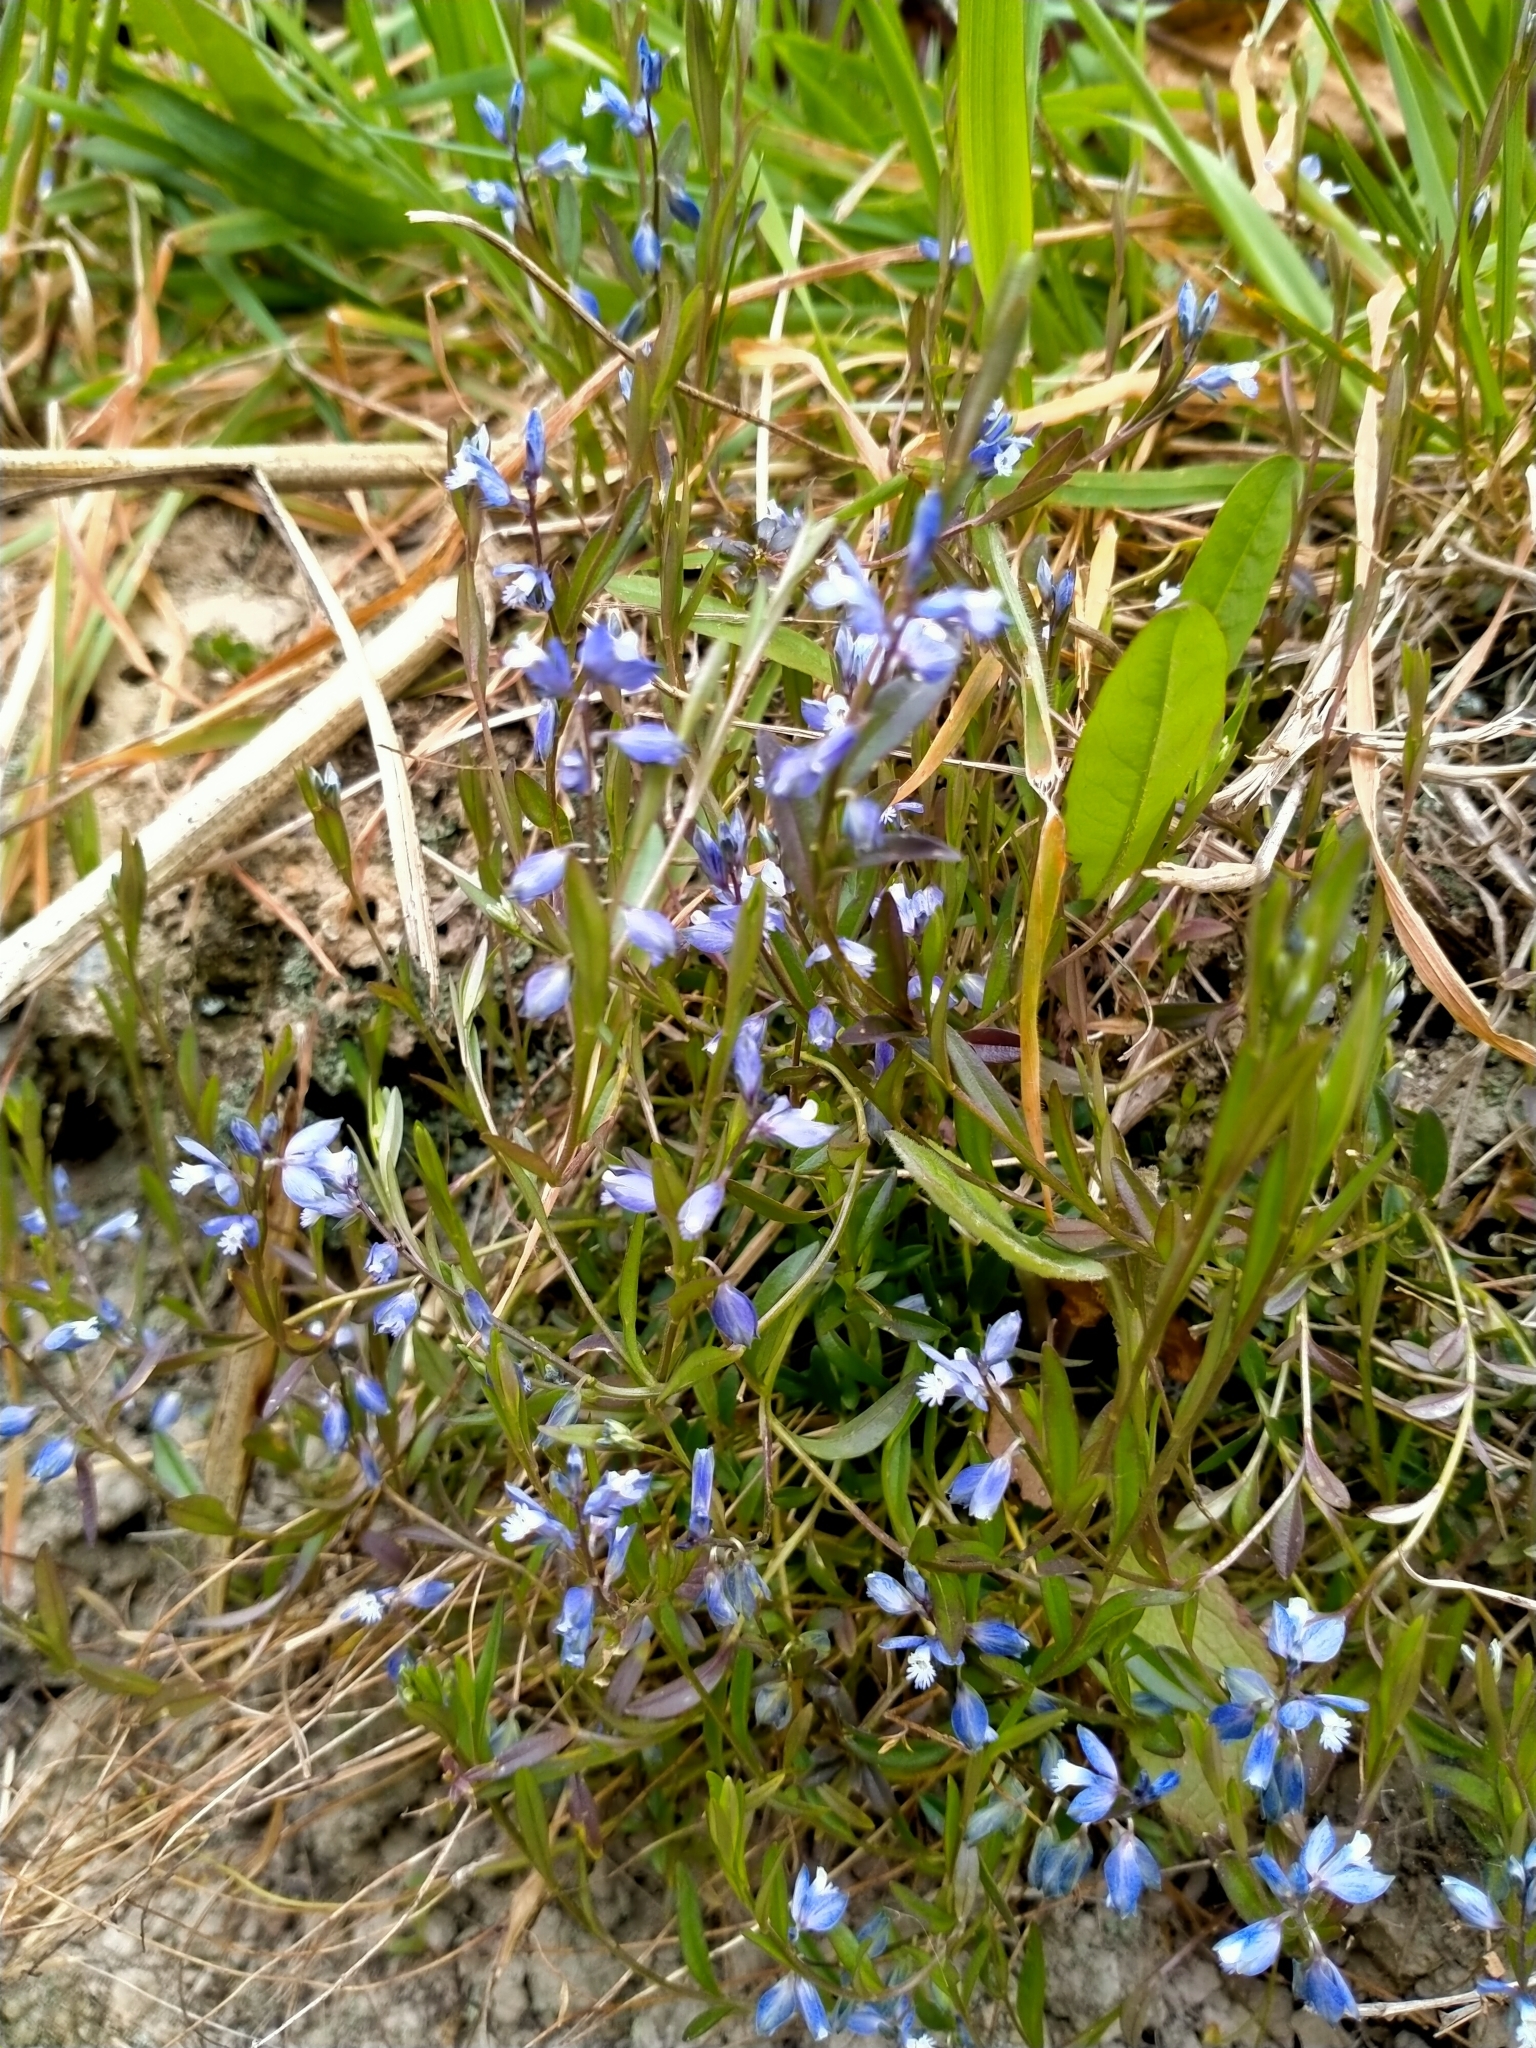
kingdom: Plantae
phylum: Tracheophyta
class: Magnoliopsida
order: Fabales
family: Polygalaceae
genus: Polygala
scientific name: Polygala serpyllifolia
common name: Heath milkwort
